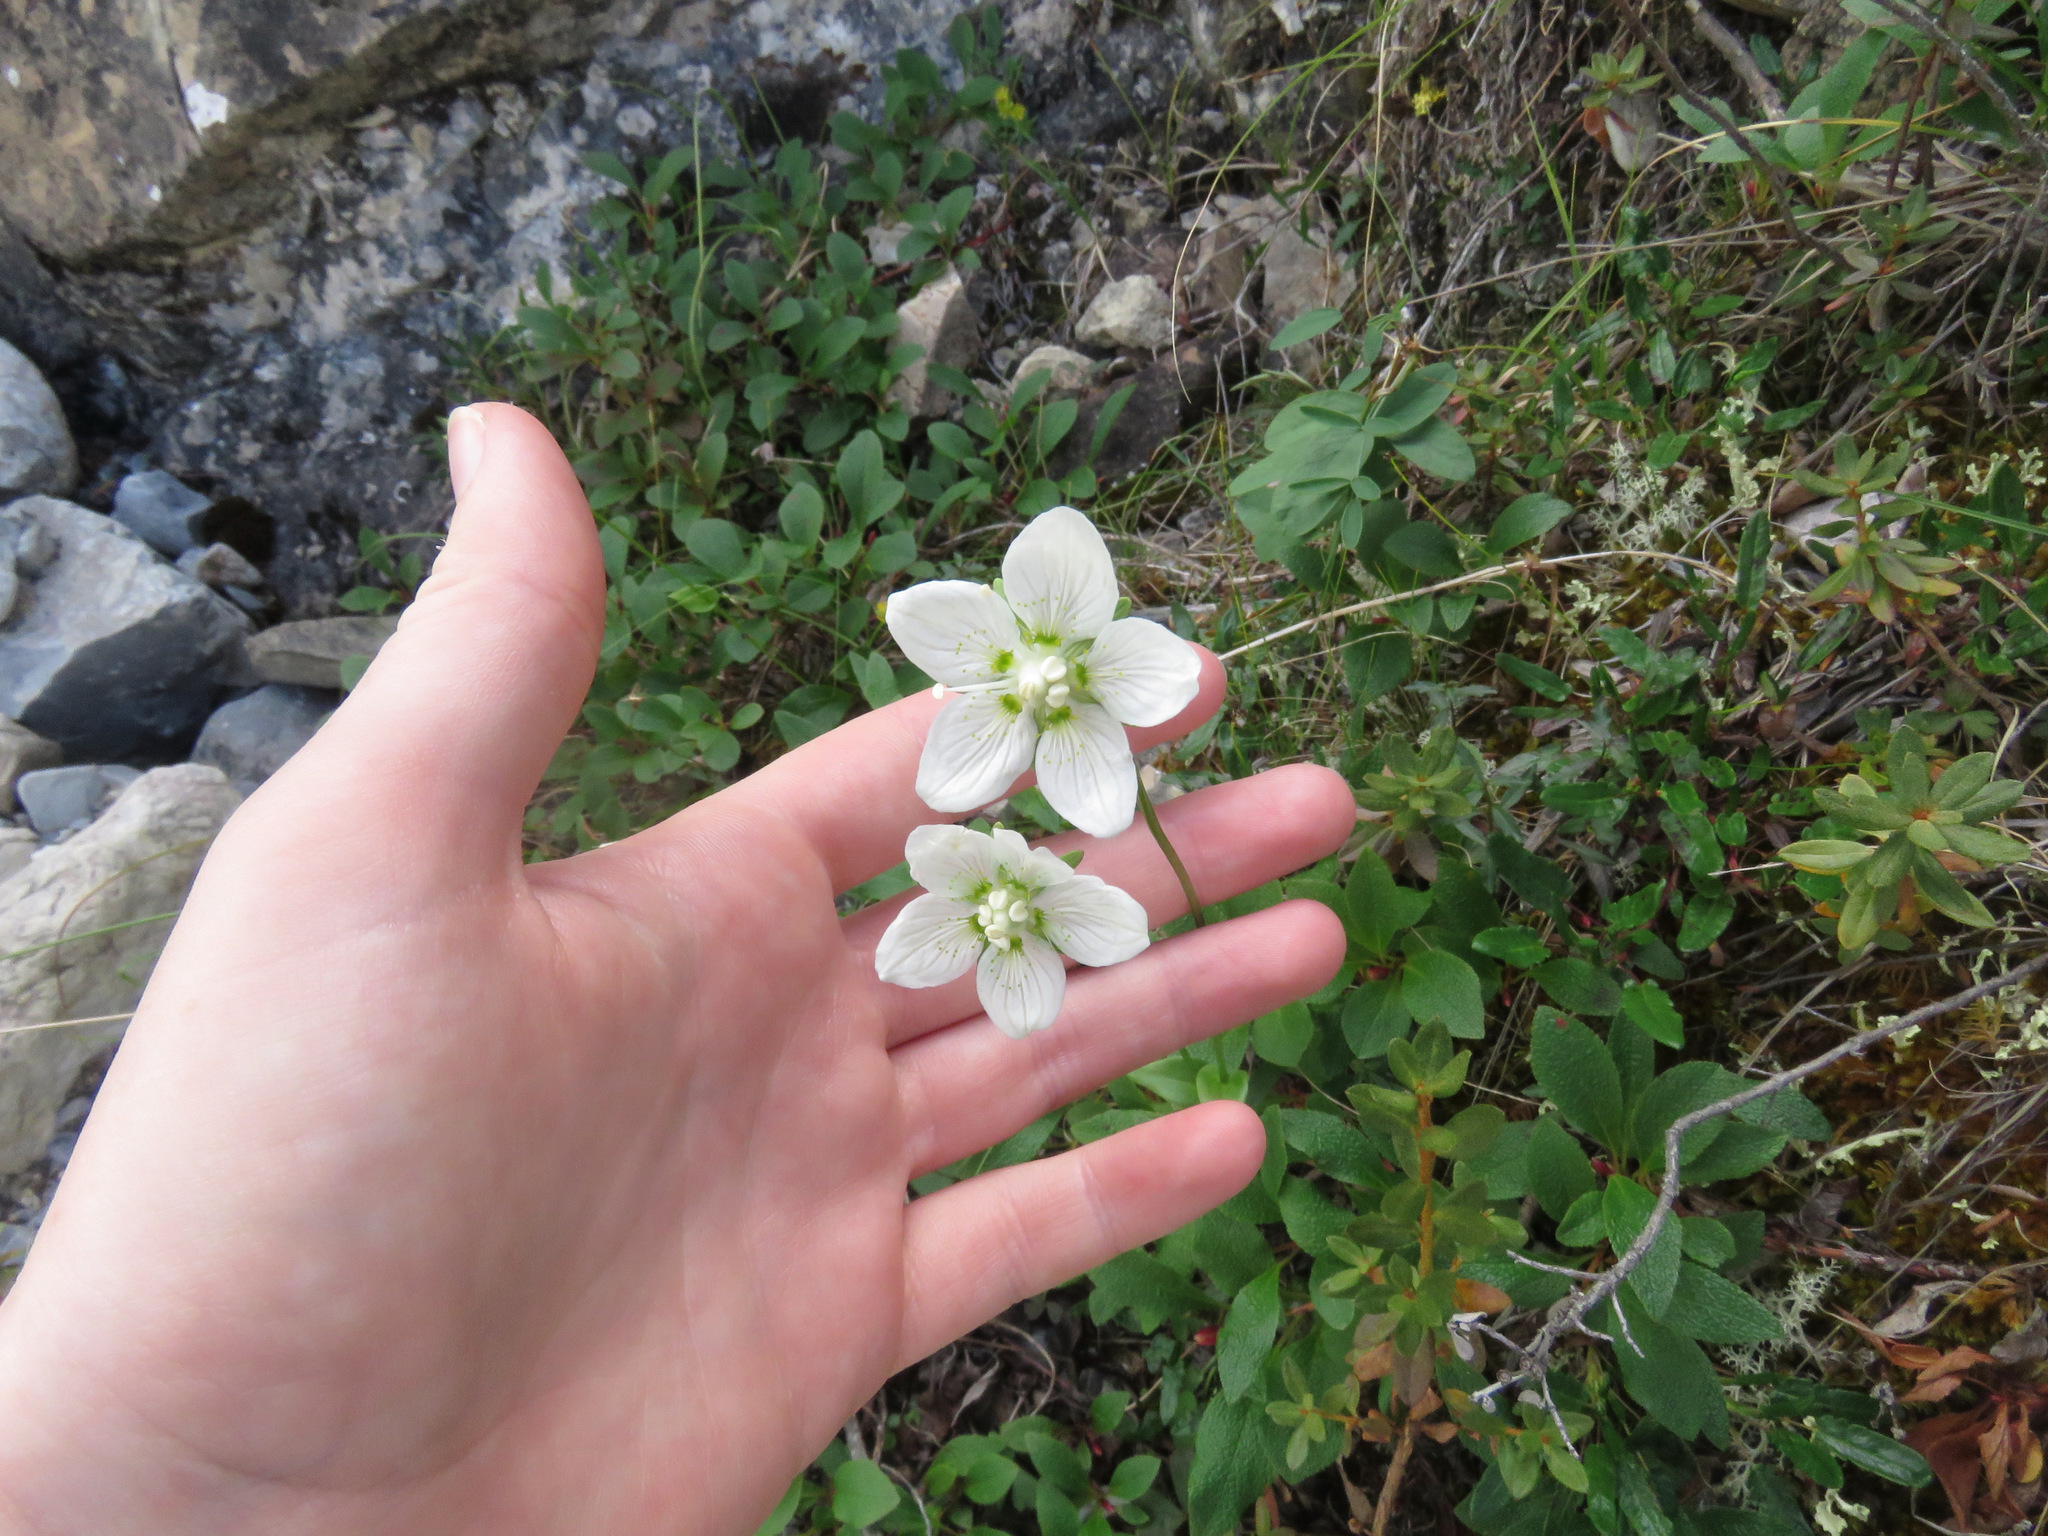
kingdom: Plantae
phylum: Tracheophyta
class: Magnoliopsida
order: Celastrales
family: Parnassiaceae
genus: Parnassia
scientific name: Parnassia palustris
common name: Grass-of-parnassus
